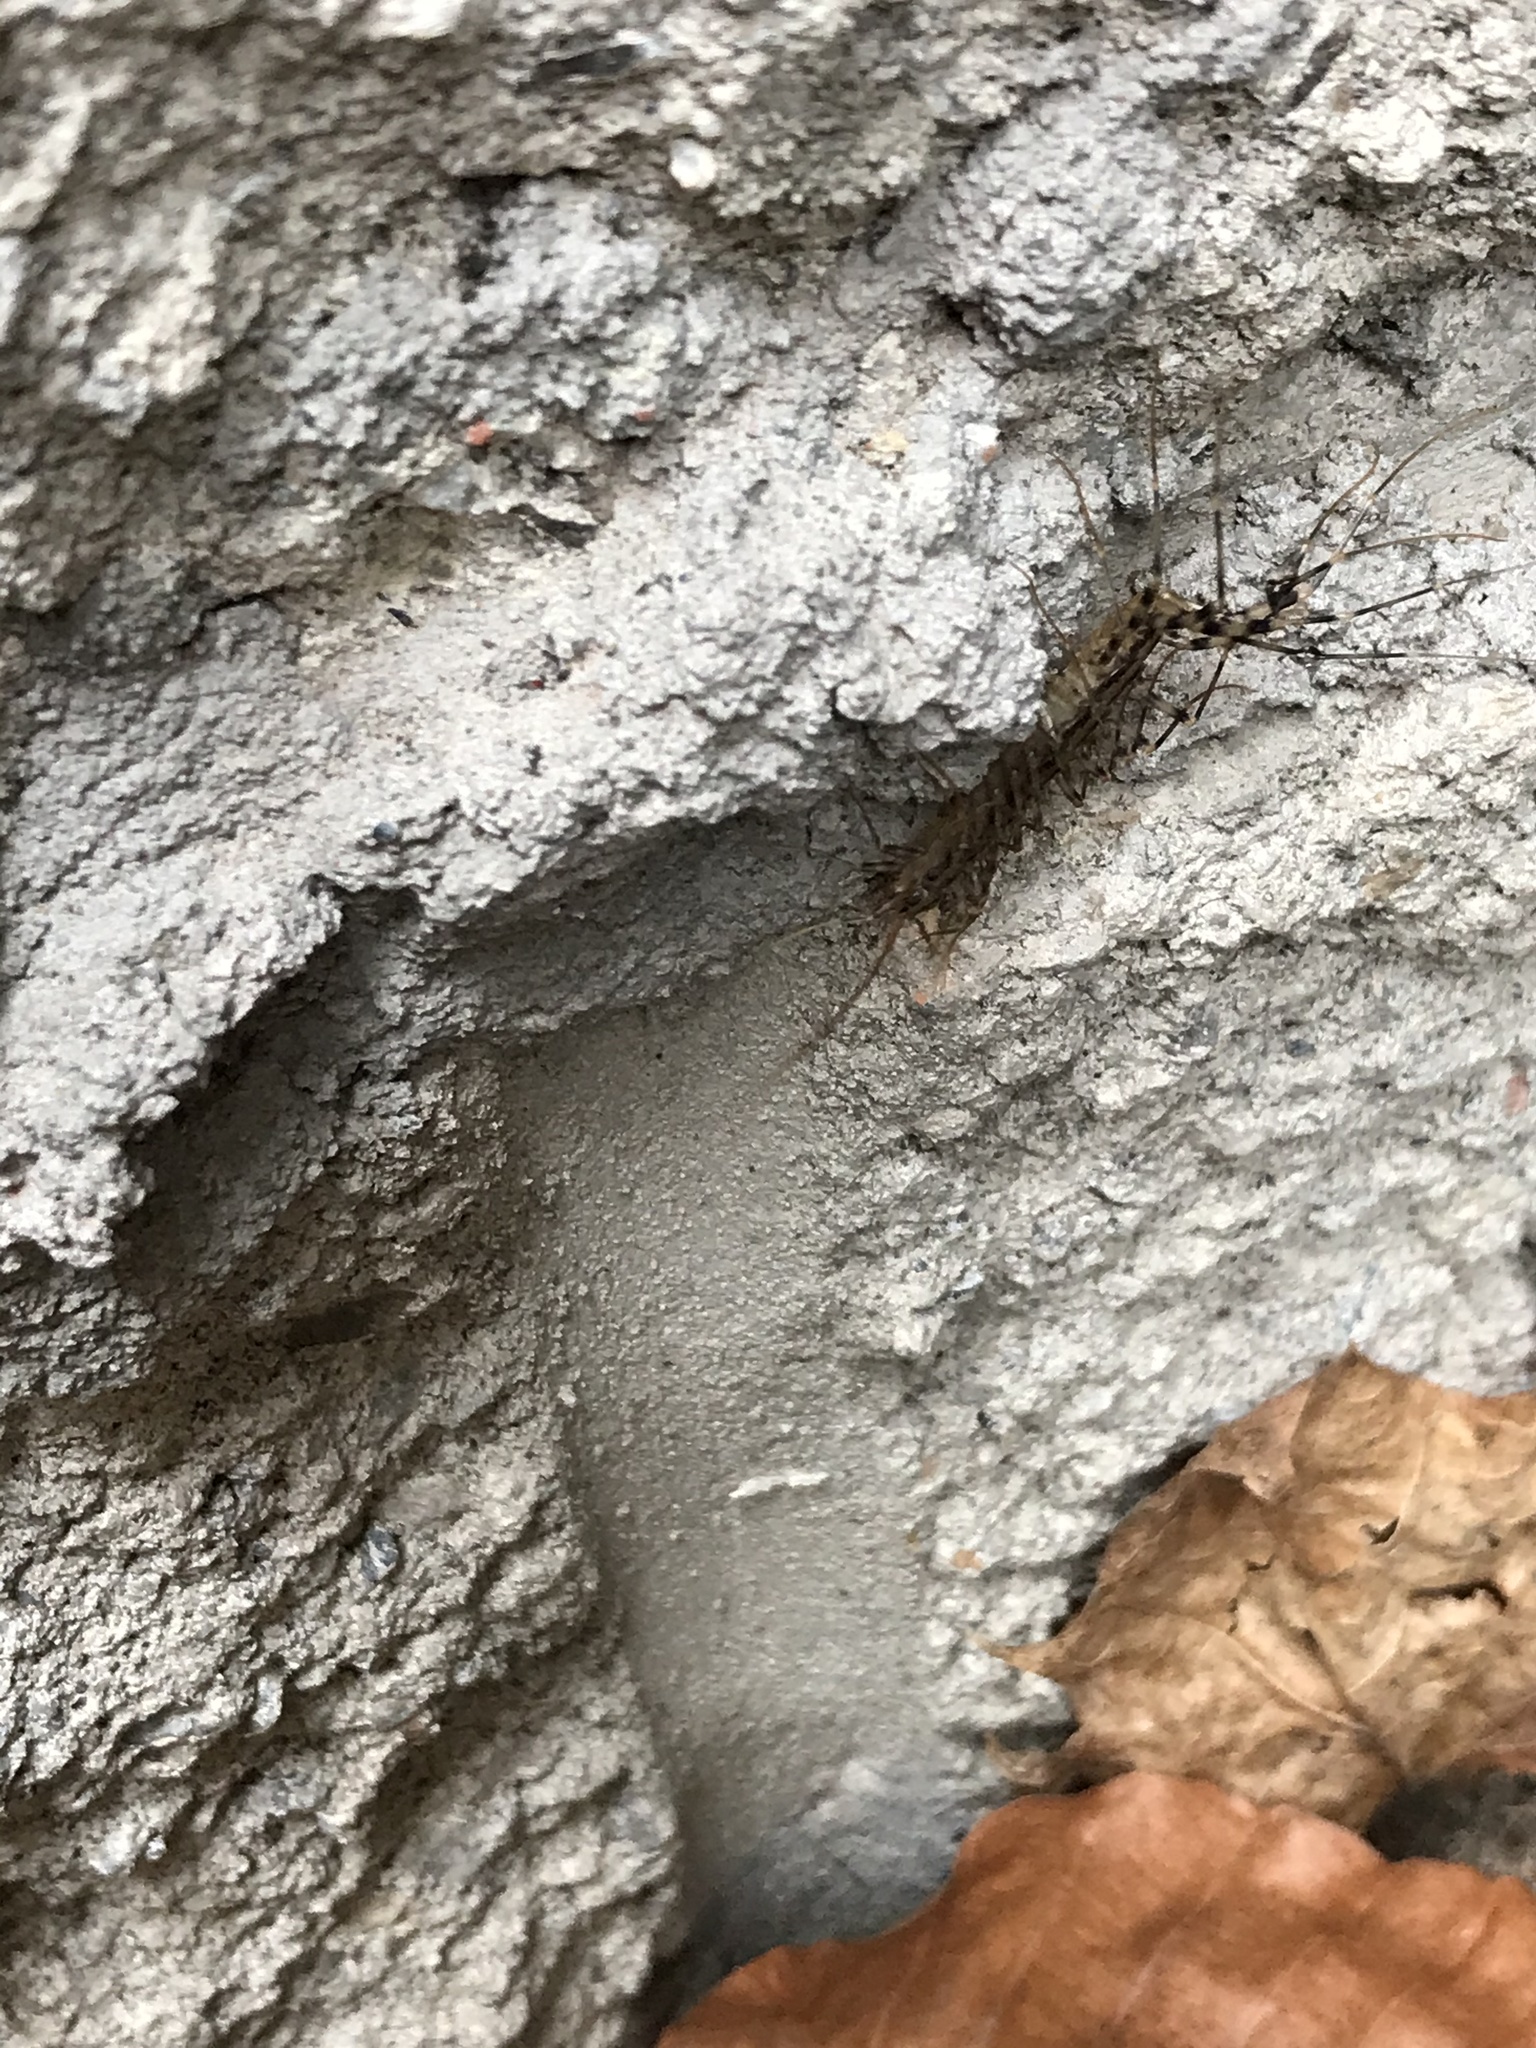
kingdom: Animalia
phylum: Arthropoda
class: Chilopoda
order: Scutigeromorpha
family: Scutigeridae
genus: Scutigera
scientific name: Scutigera coleoptrata
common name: House centipede
